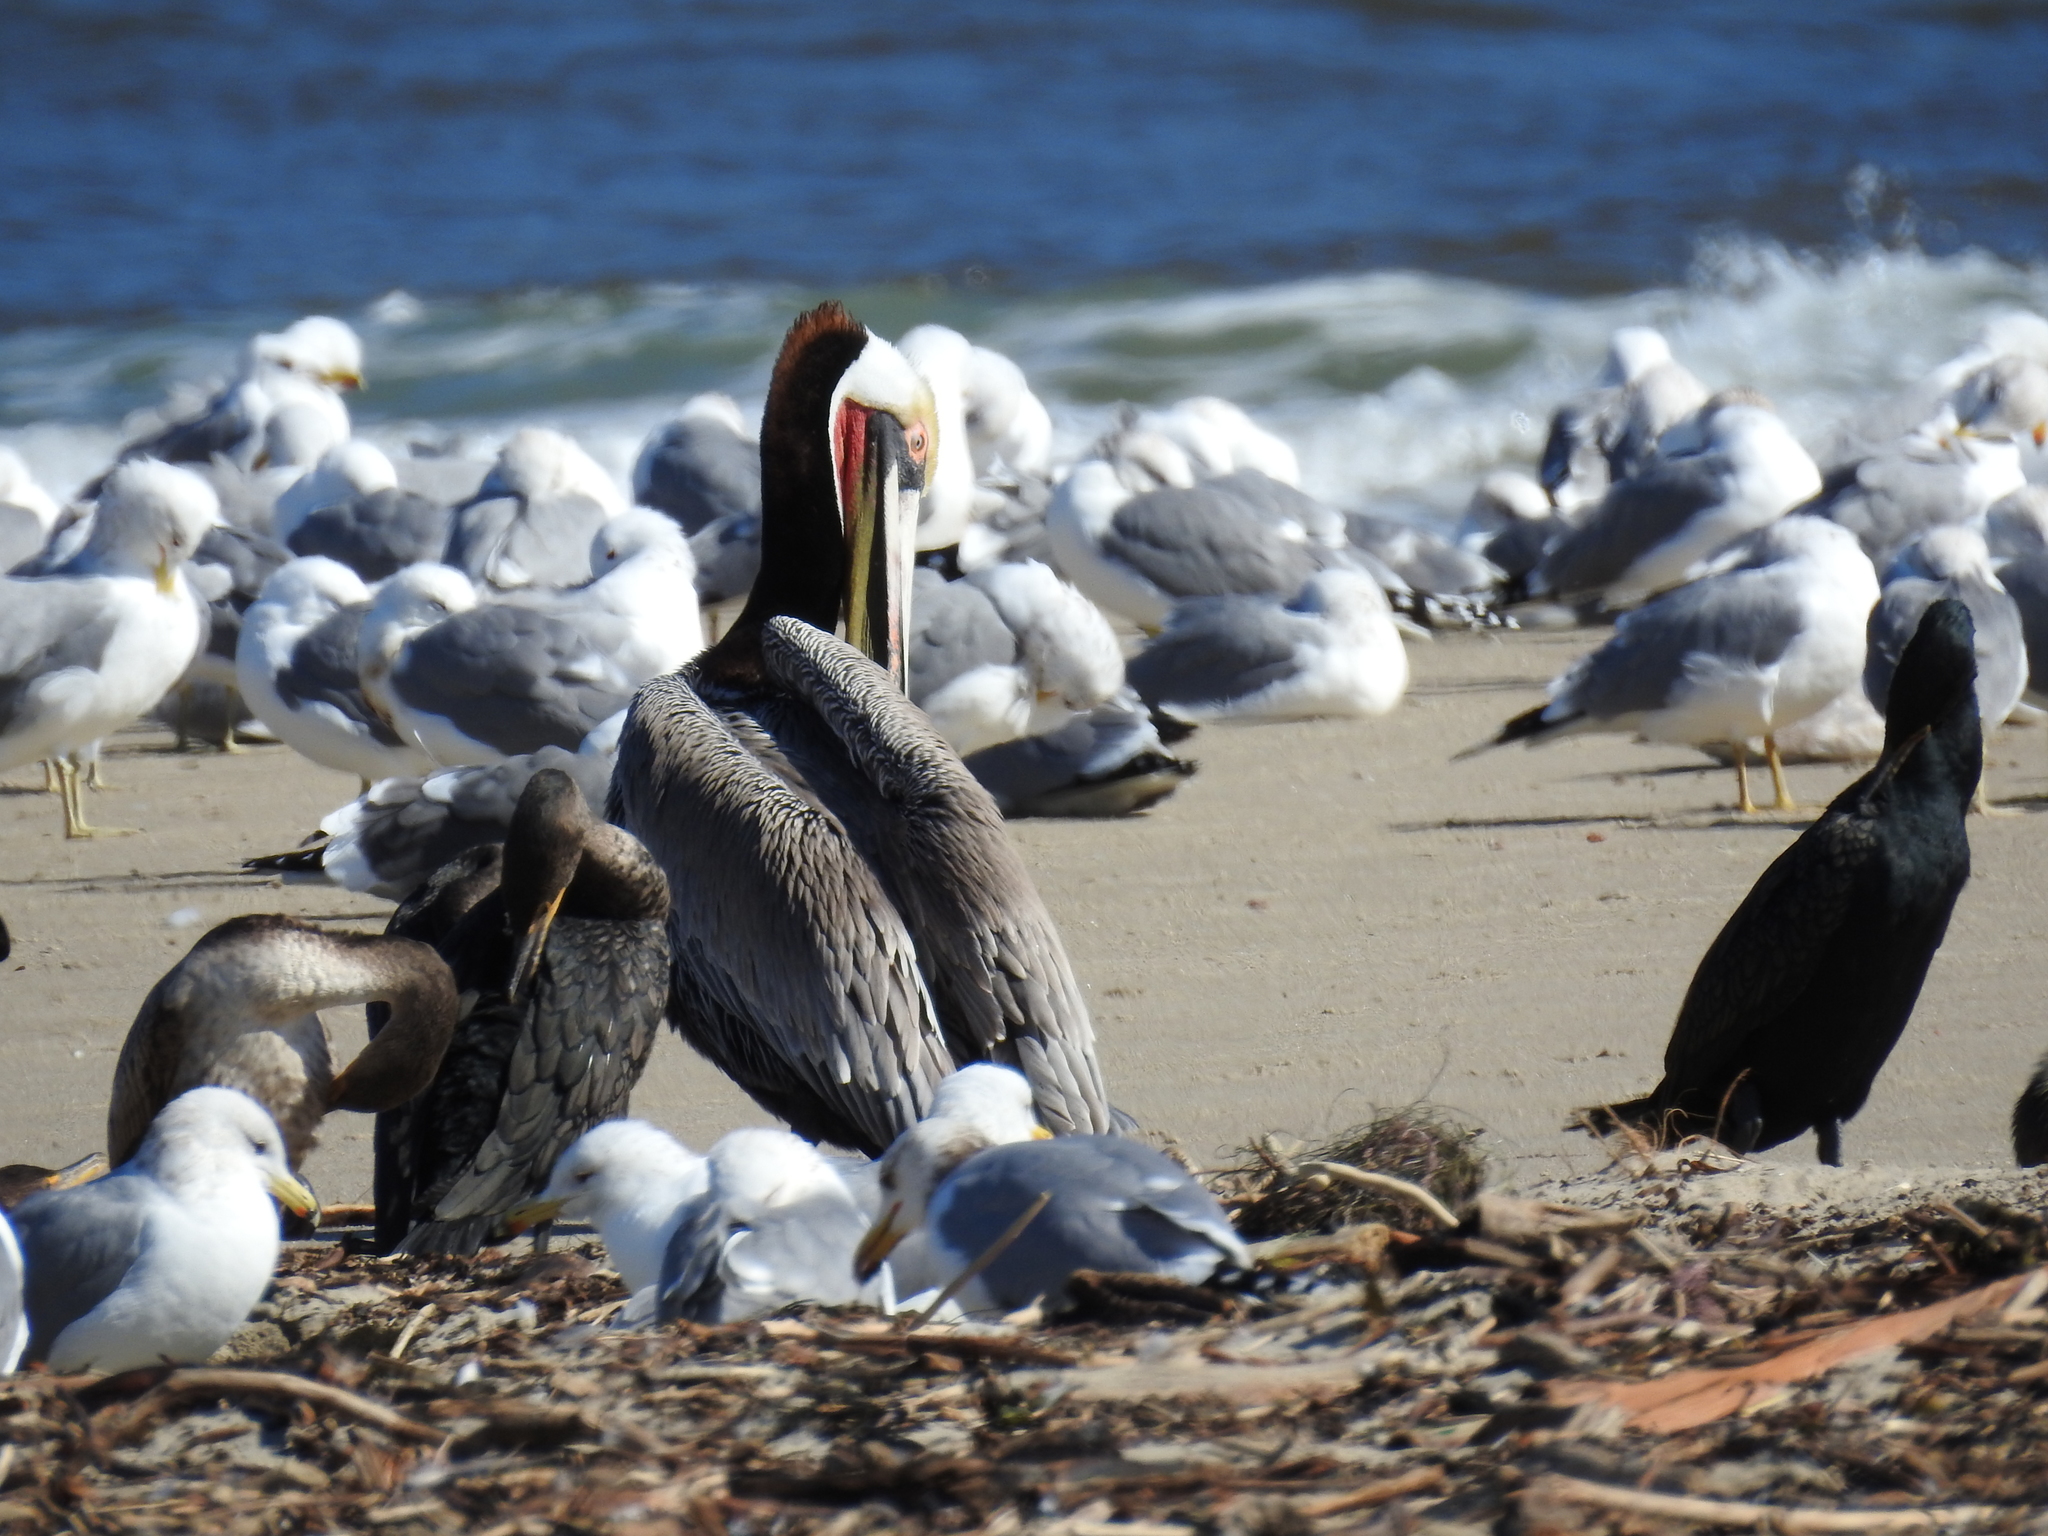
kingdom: Animalia
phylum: Chordata
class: Aves
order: Pelecaniformes
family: Pelecanidae
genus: Pelecanus
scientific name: Pelecanus occidentalis
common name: Brown pelican
